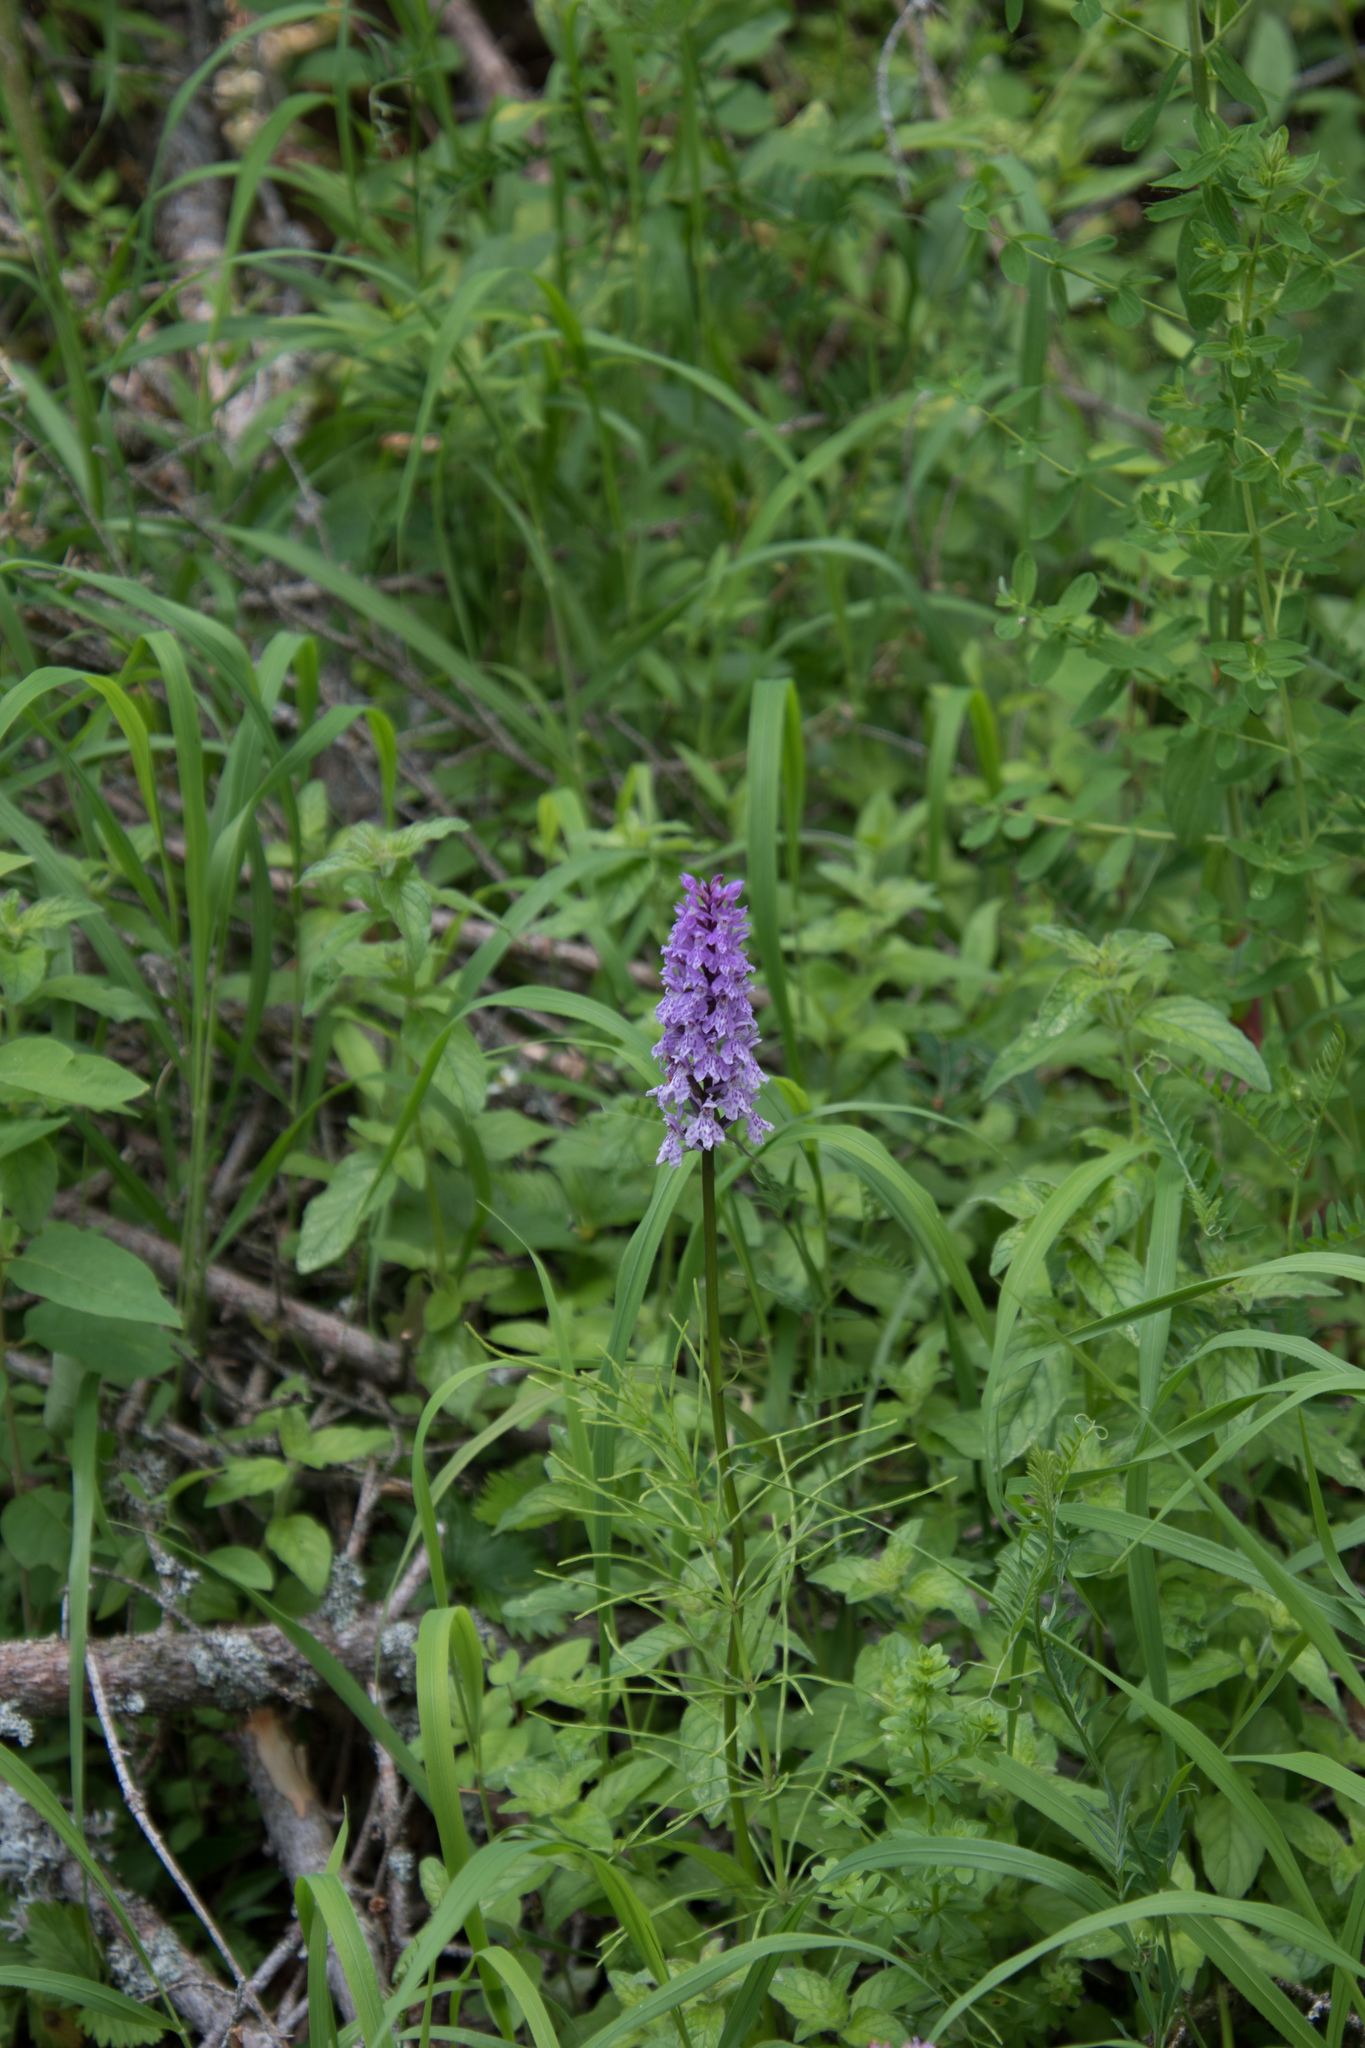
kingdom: Plantae
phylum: Tracheophyta
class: Liliopsida
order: Asparagales
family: Orchidaceae
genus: Dactylorhiza
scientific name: Dactylorhiza maculata
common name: Heath spotted-orchid
